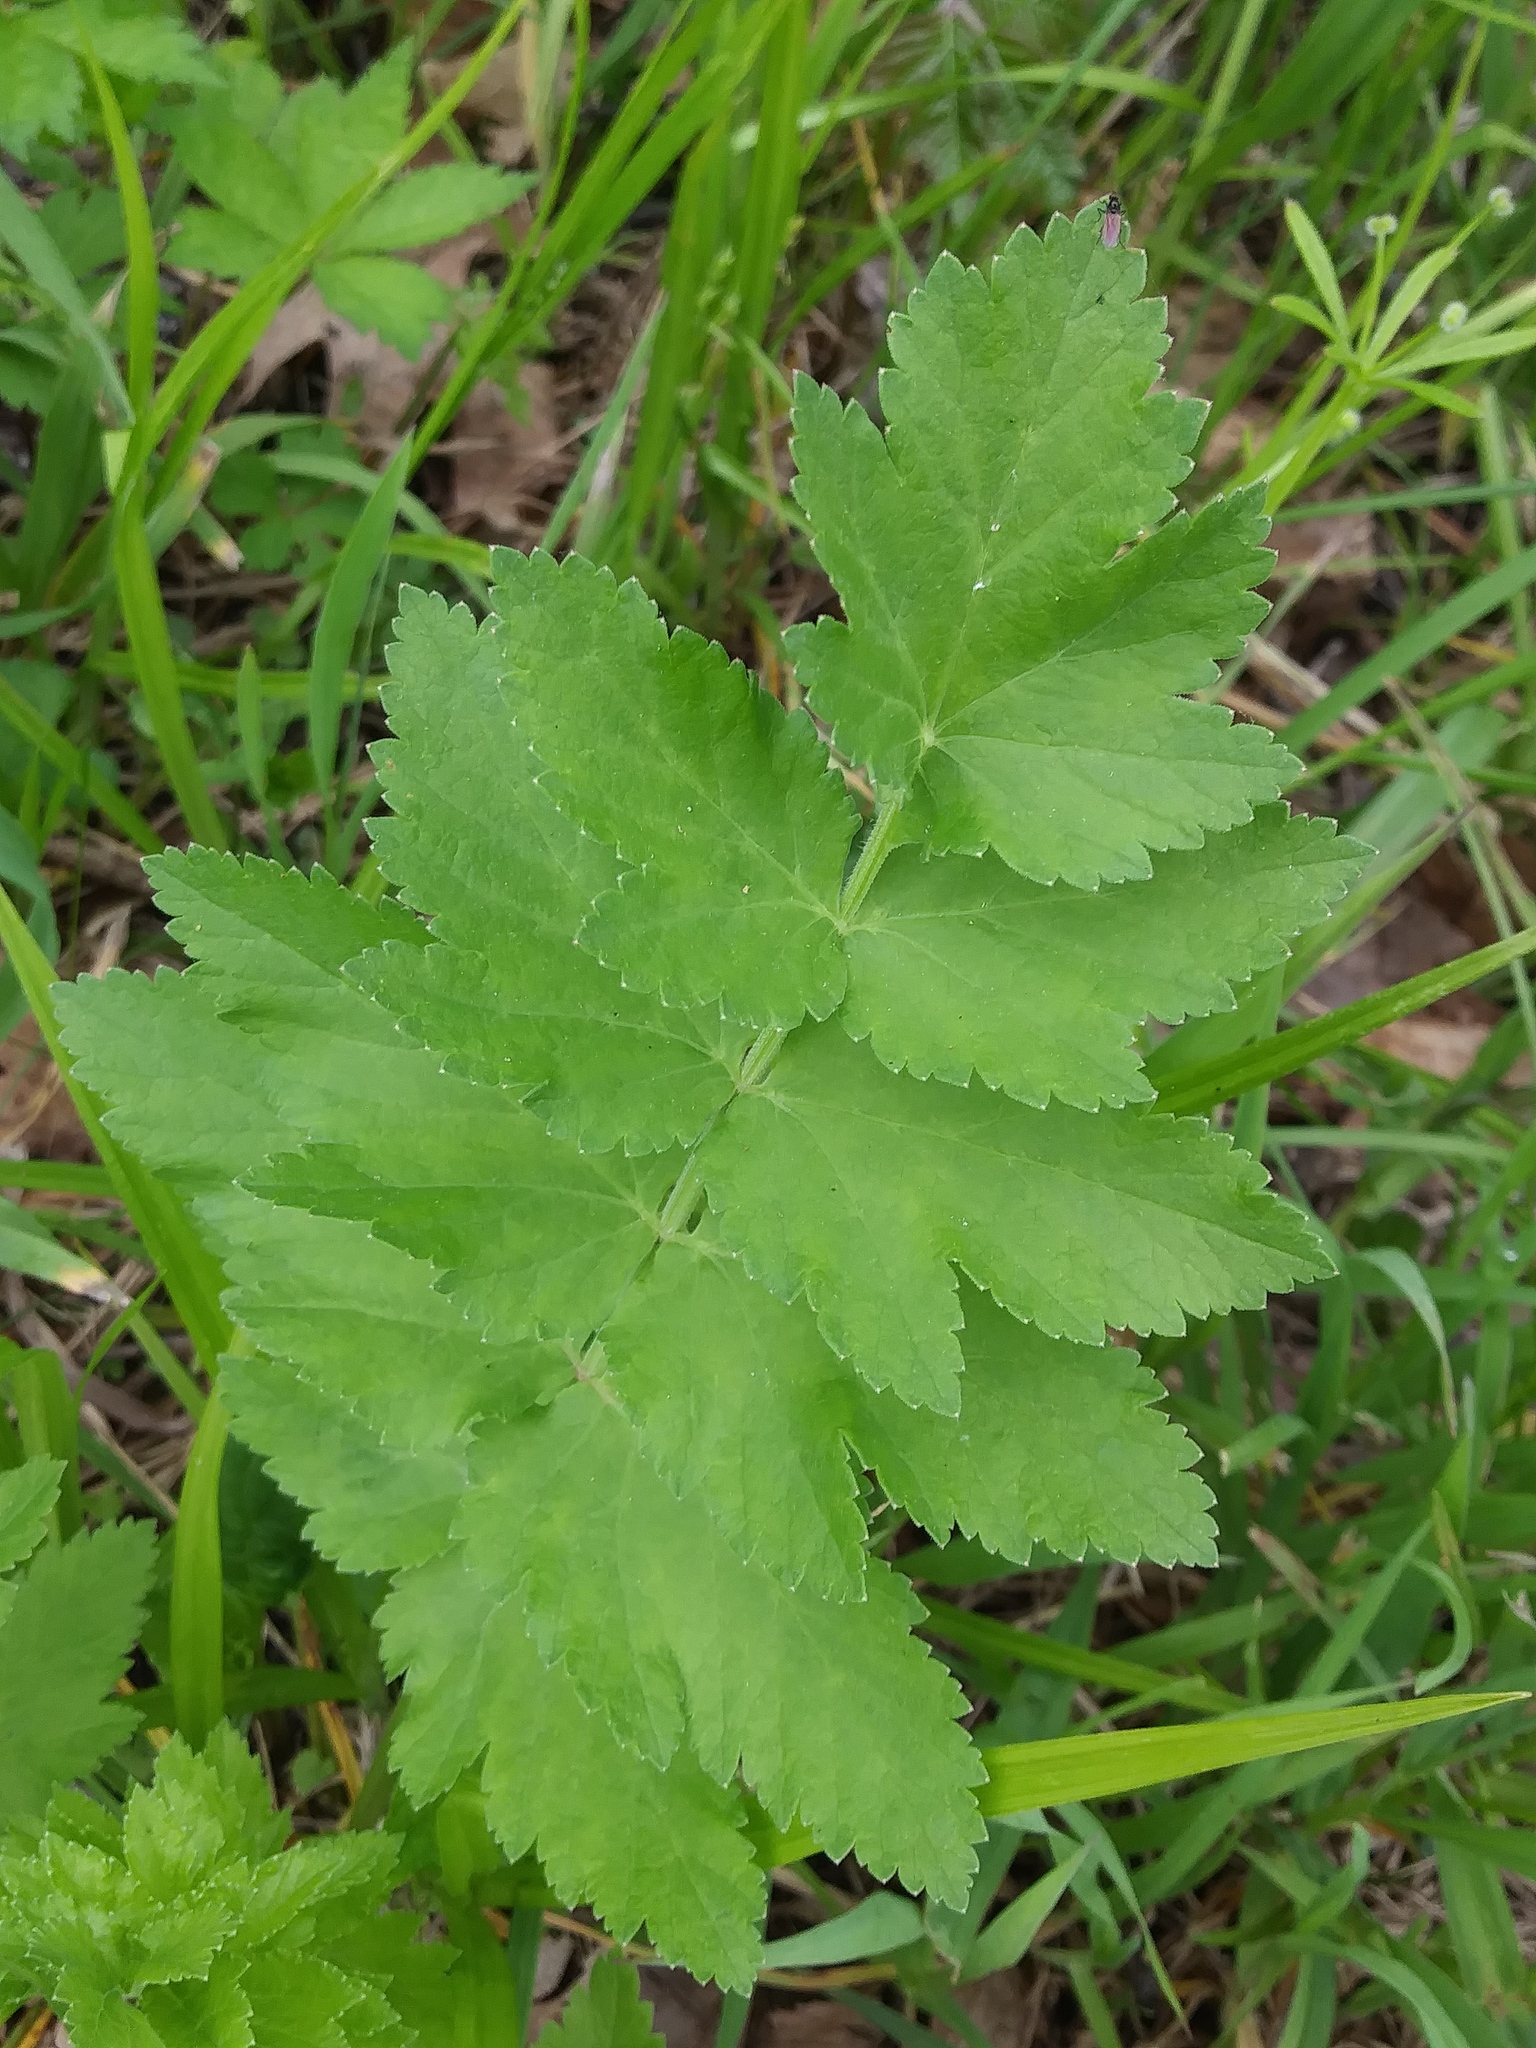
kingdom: Plantae
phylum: Tracheophyta
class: Magnoliopsida
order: Apiales
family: Apiaceae
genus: Pastinaca
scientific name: Pastinaca sativa
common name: Wild parsnip
